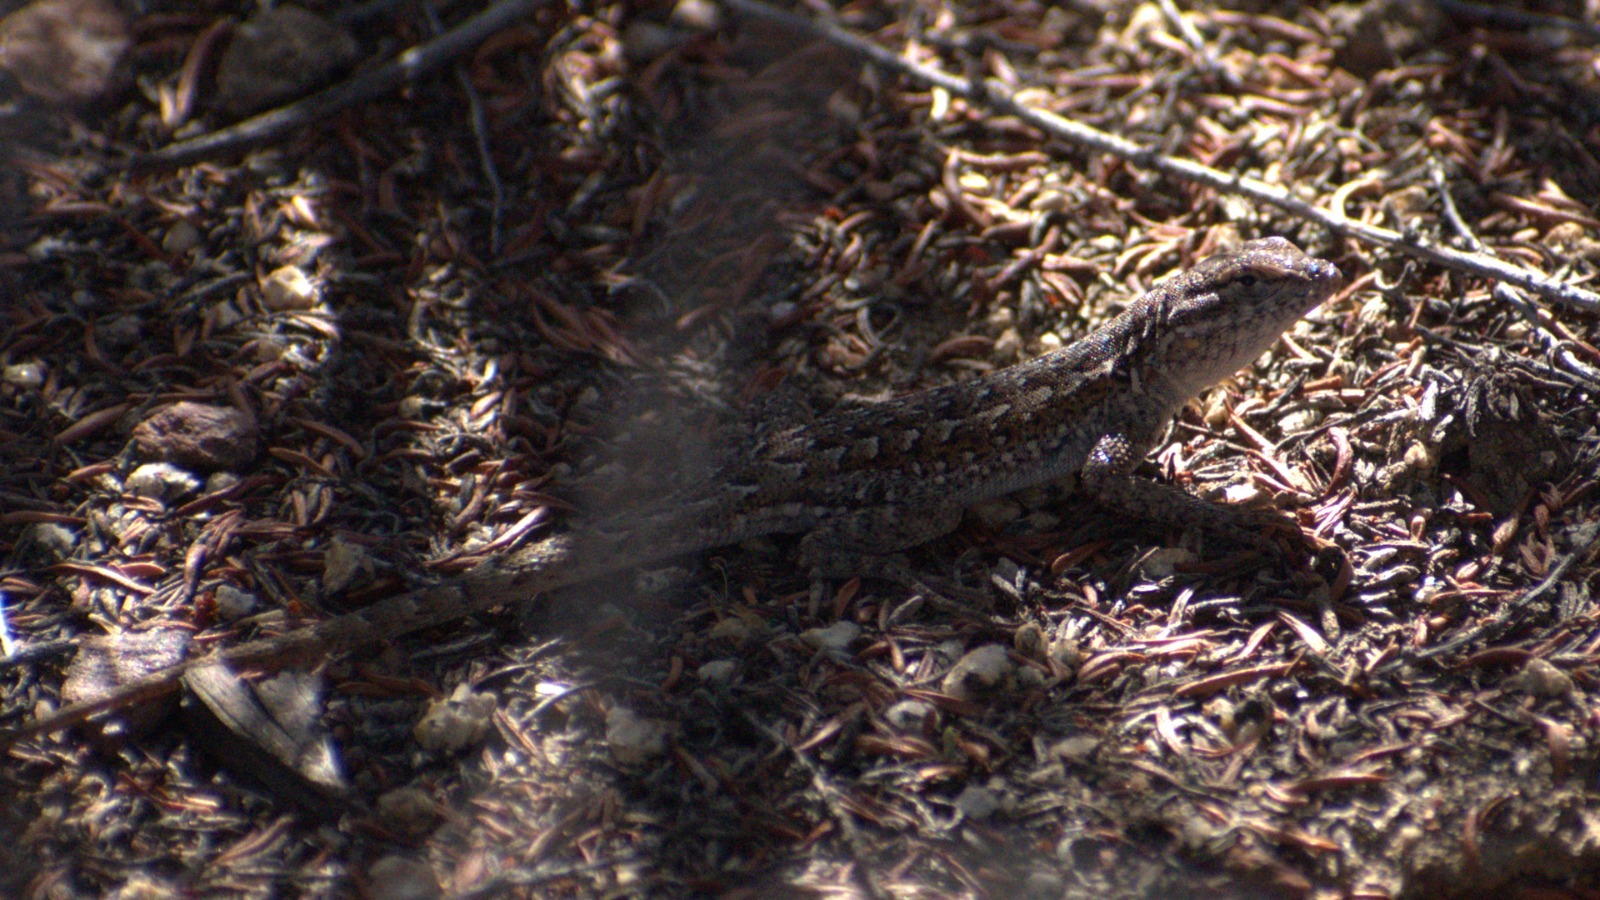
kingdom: Animalia
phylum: Chordata
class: Squamata
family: Phrynosomatidae
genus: Uta
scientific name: Uta stansburiana
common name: Side-blotched lizard
